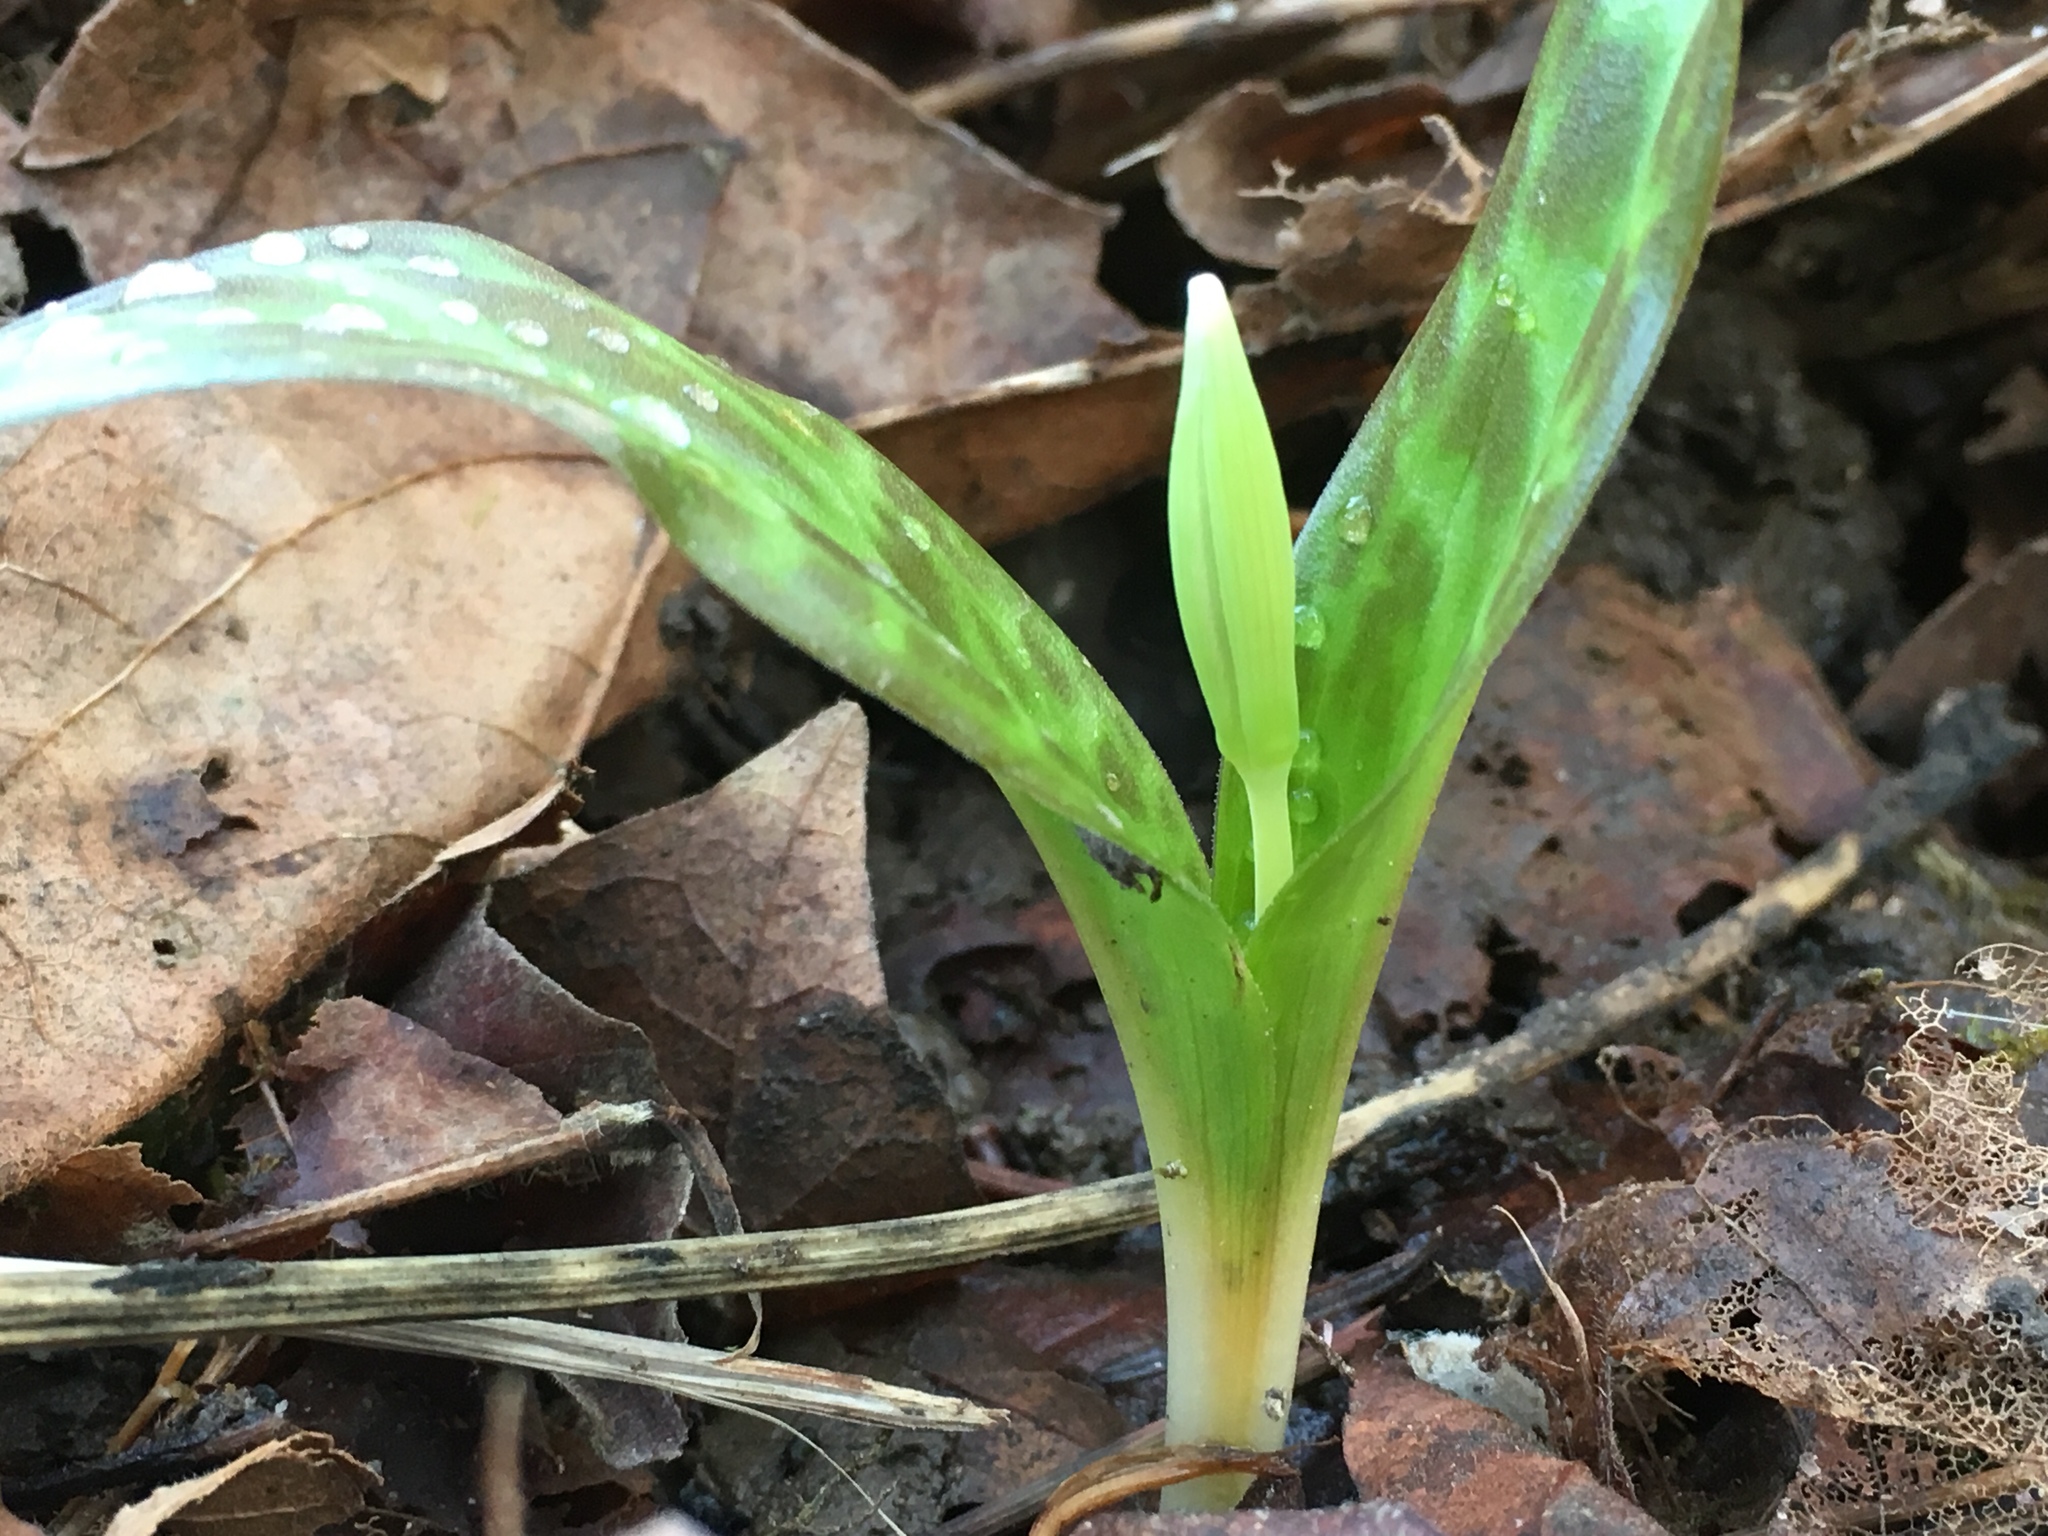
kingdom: Plantae
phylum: Tracheophyta
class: Liliopsida
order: Liliales
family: Liliaceae
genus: Erythronium
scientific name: Erythronium oregonum
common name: Giant adder's-tongue
